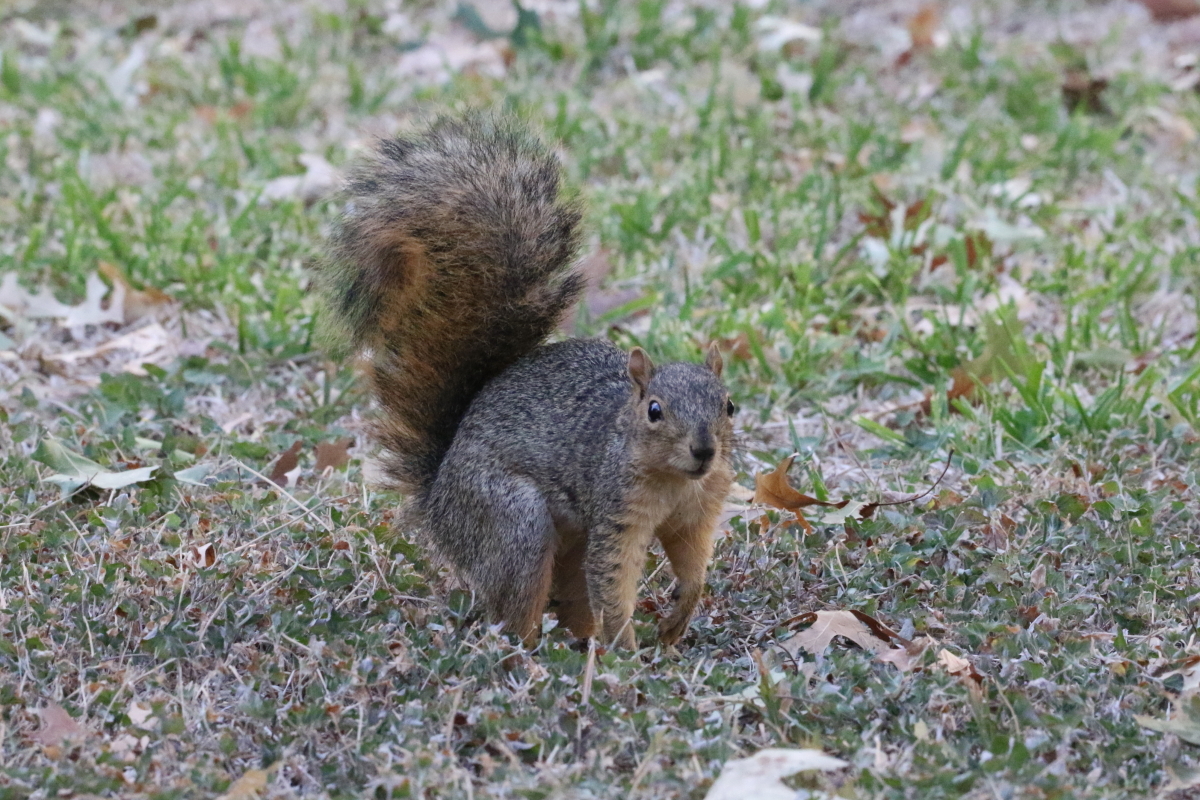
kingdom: Animalia
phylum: Chordata
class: Mammalia
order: Rodentia
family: Sciuridae
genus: Sciurus
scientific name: Sciurus niger
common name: Fox squirrel
